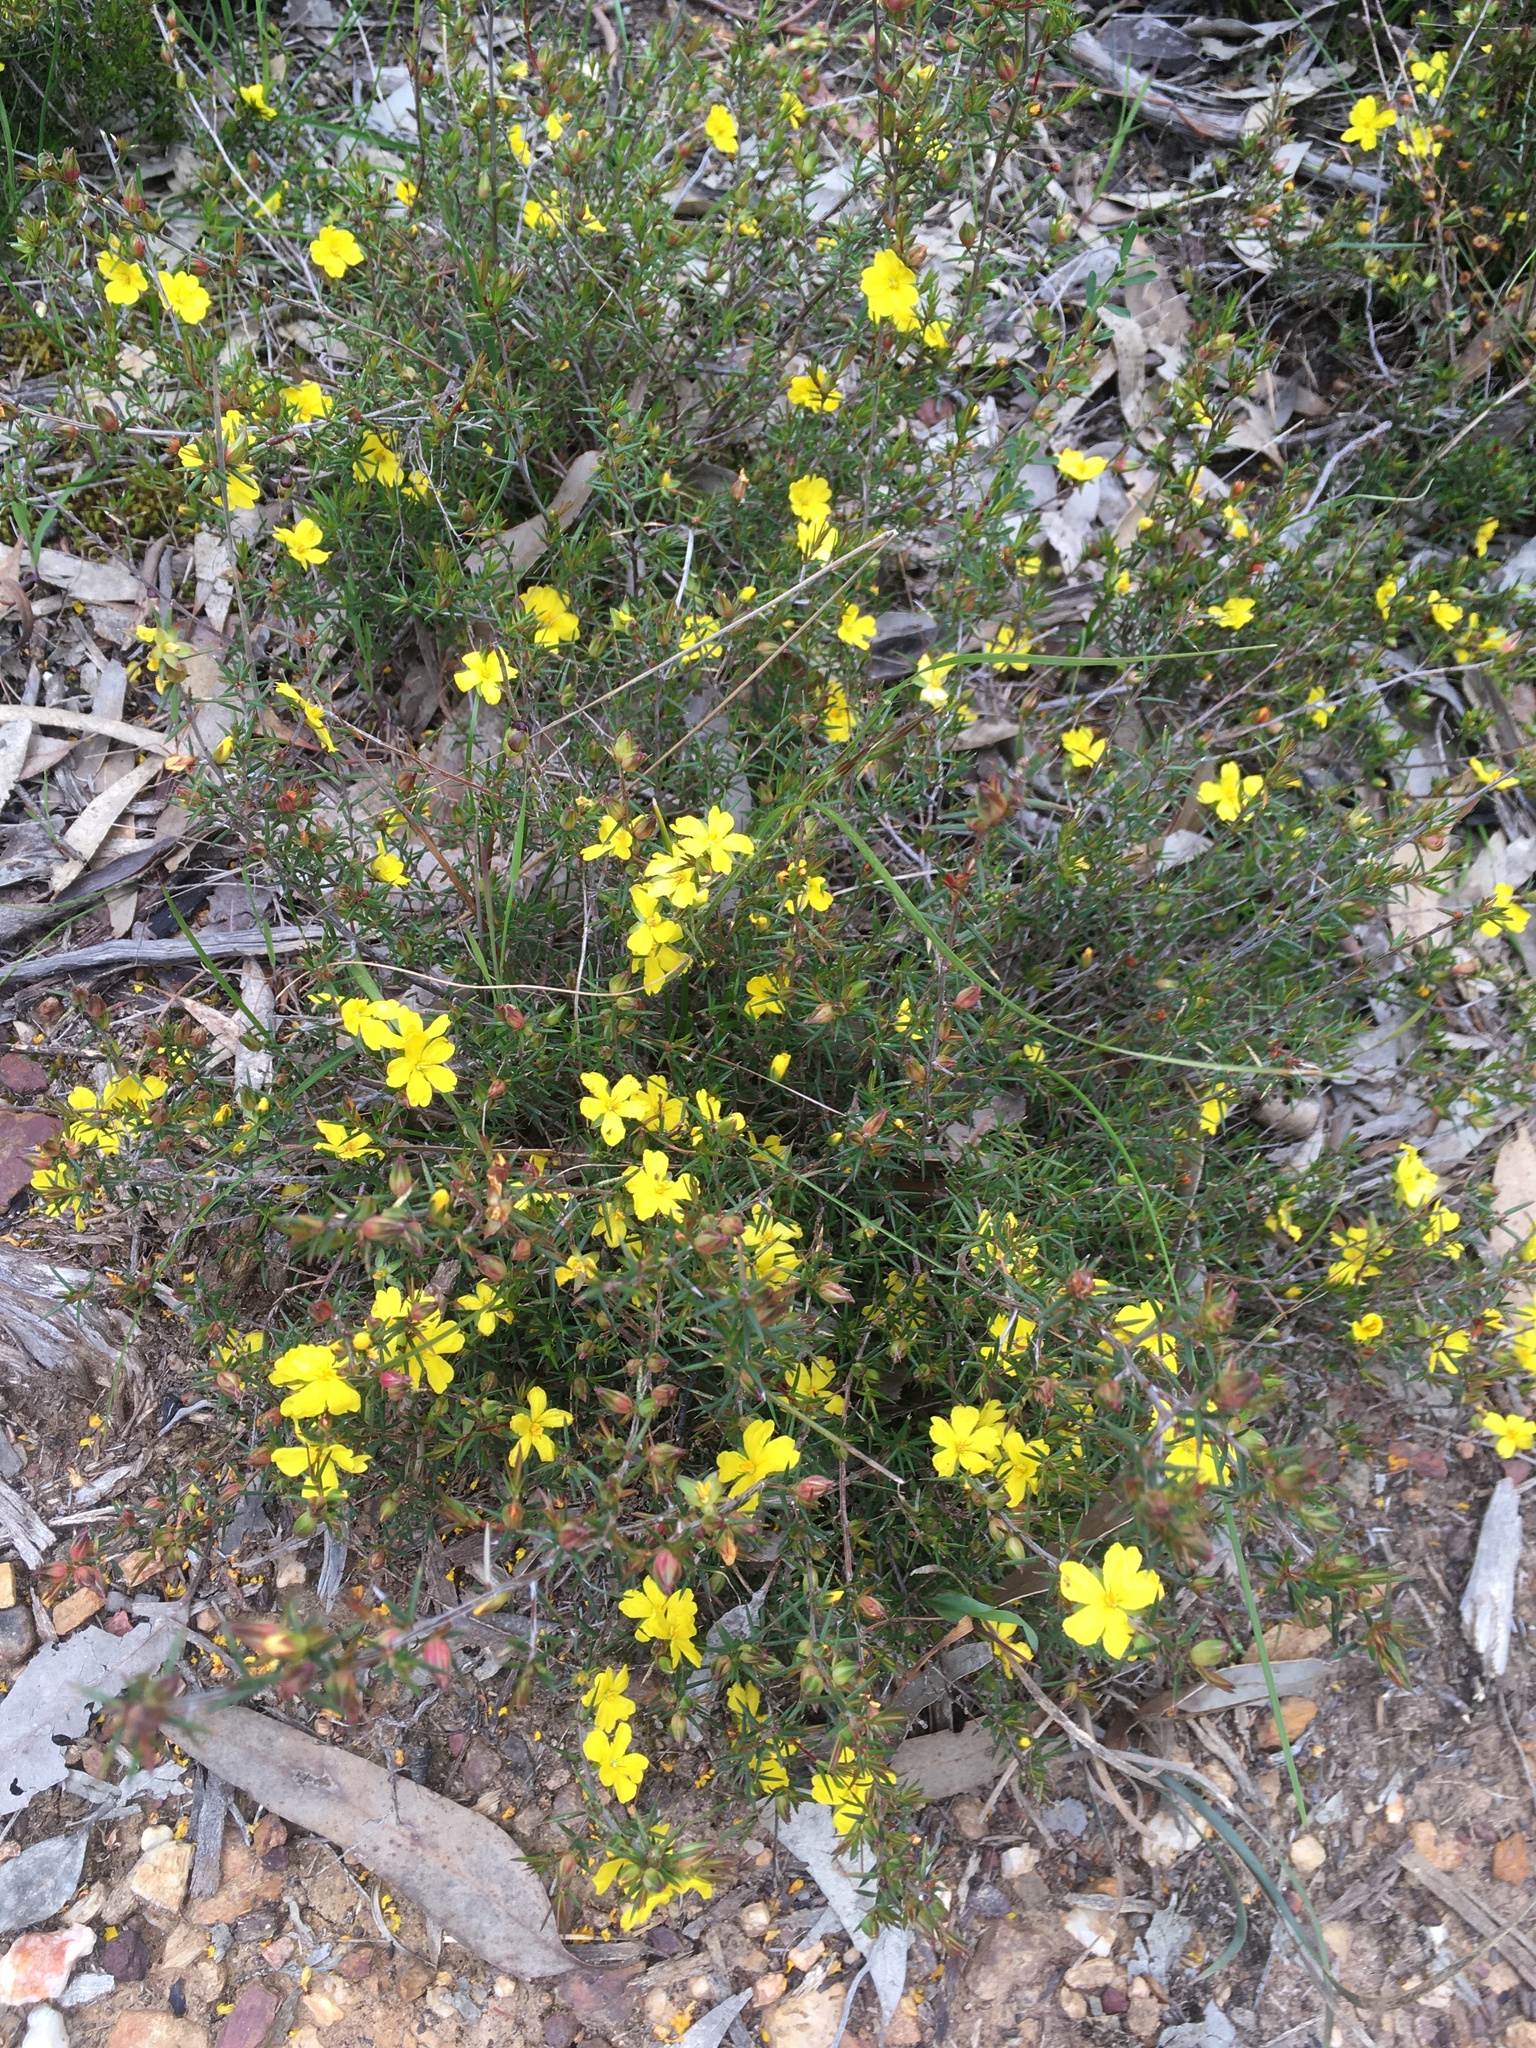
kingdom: Plantae
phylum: Tracheophyta
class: Magnoliopsida
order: Dilleniales
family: Dilleniaceae
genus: Hibbertia
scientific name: Hibbertia exutiacies
